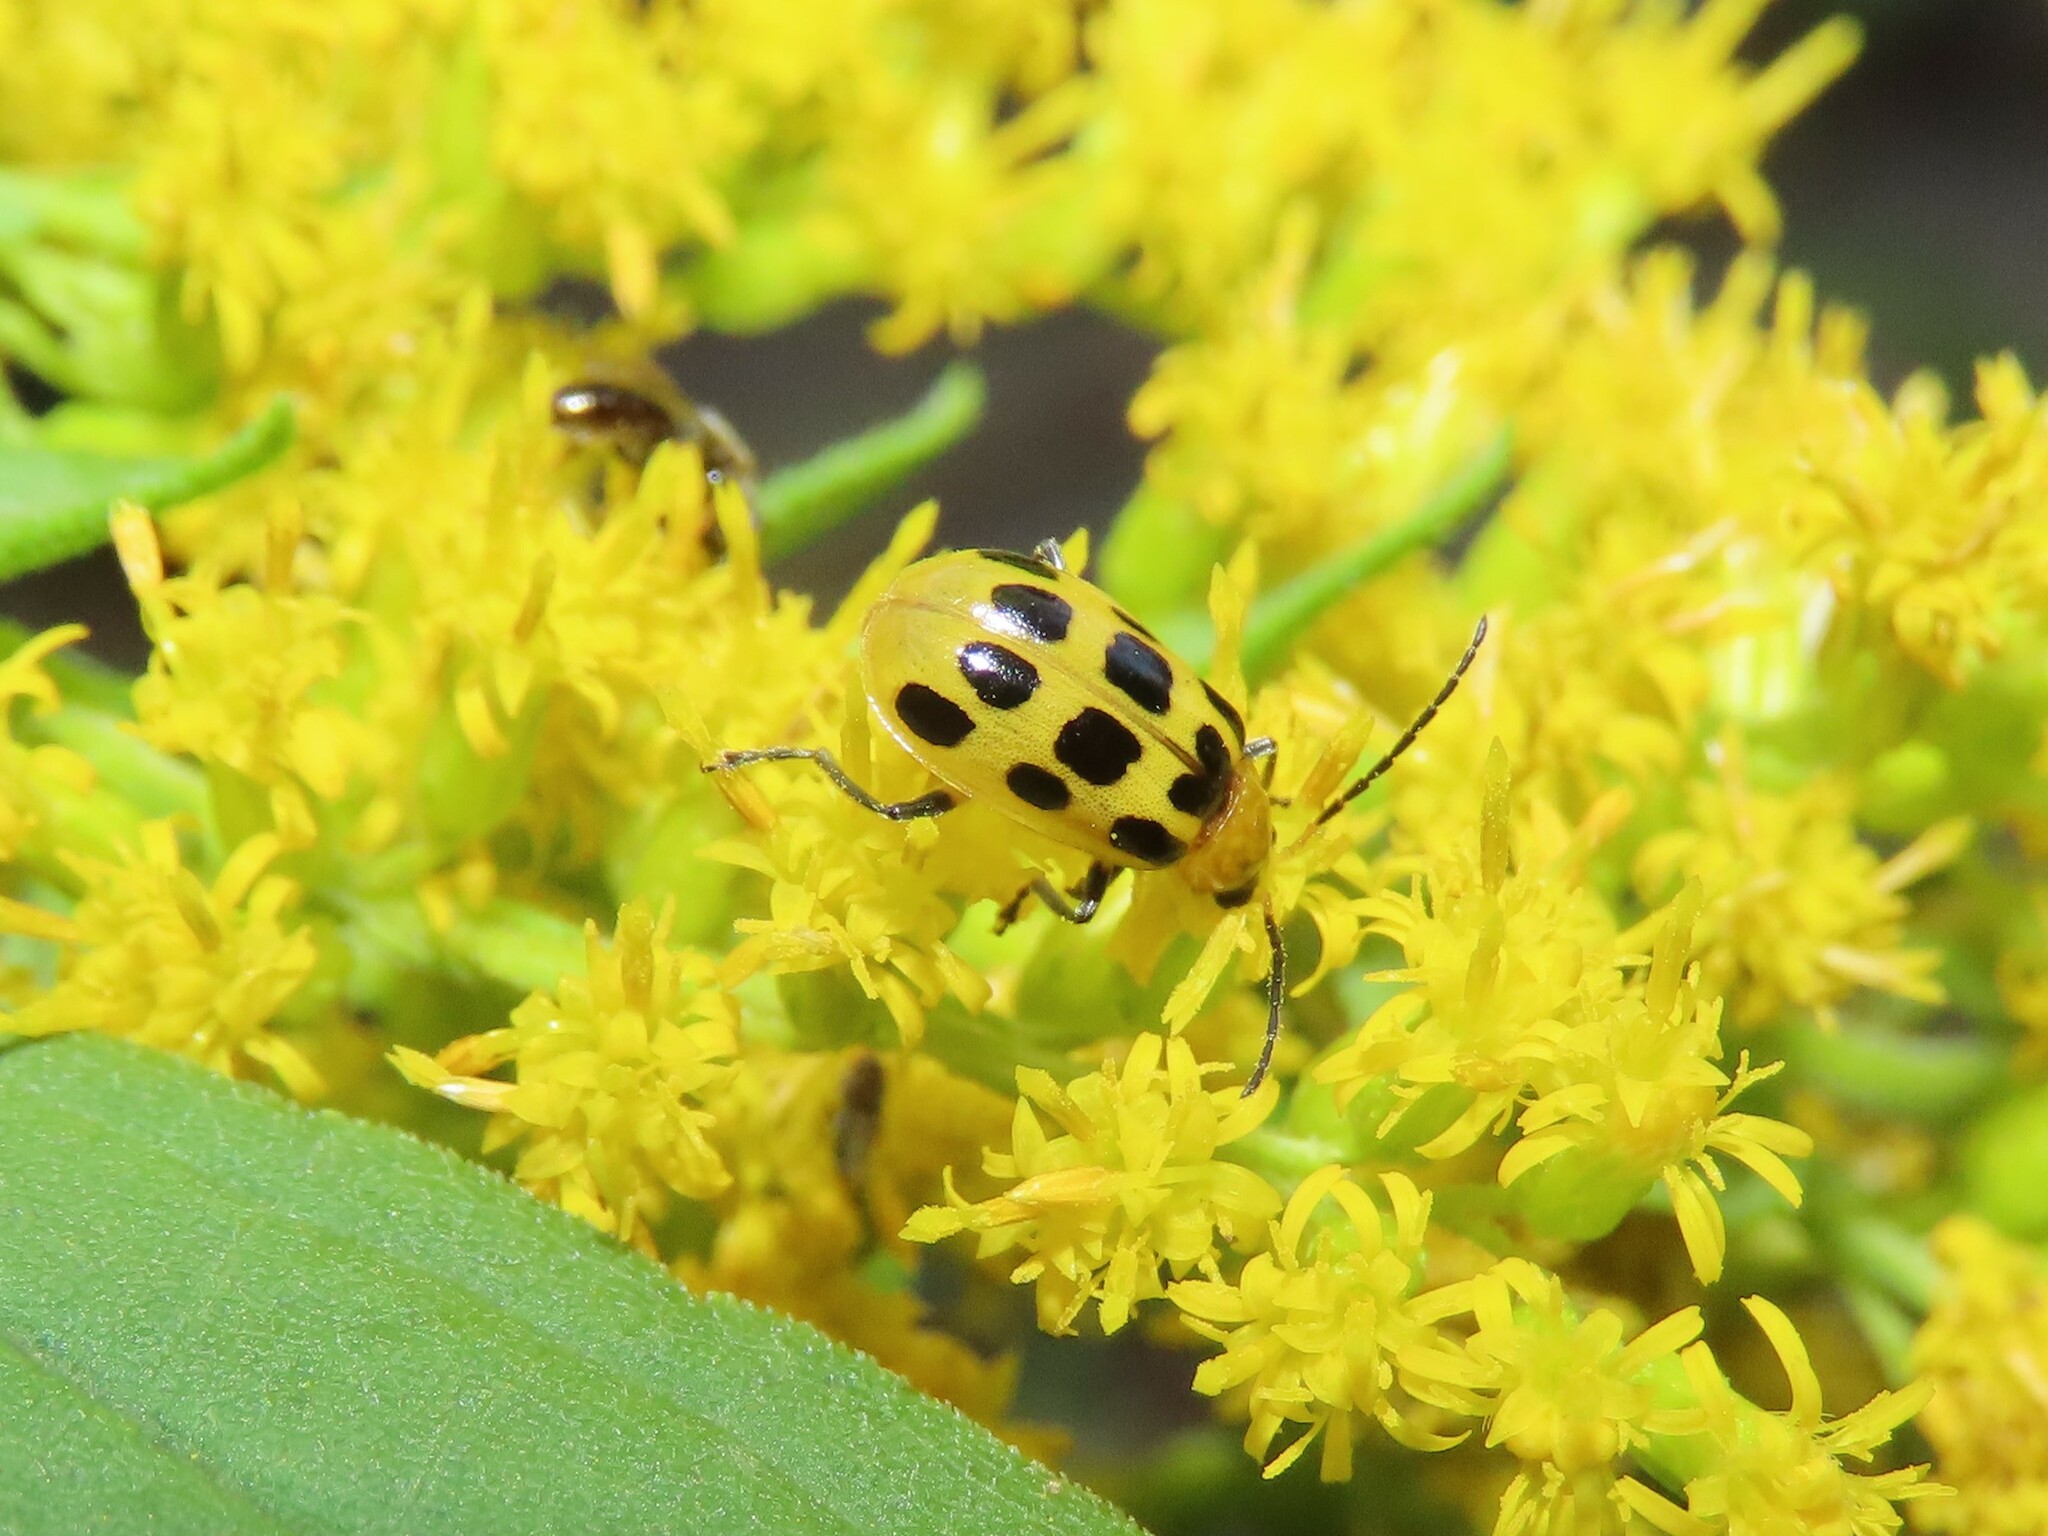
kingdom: Animalia
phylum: Arthropoda
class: Insecta
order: Coleoptera
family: Chrysomelidae
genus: Diabrotica
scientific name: Diabrotica undecimpunctata
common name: Spotted cucumber beetle
